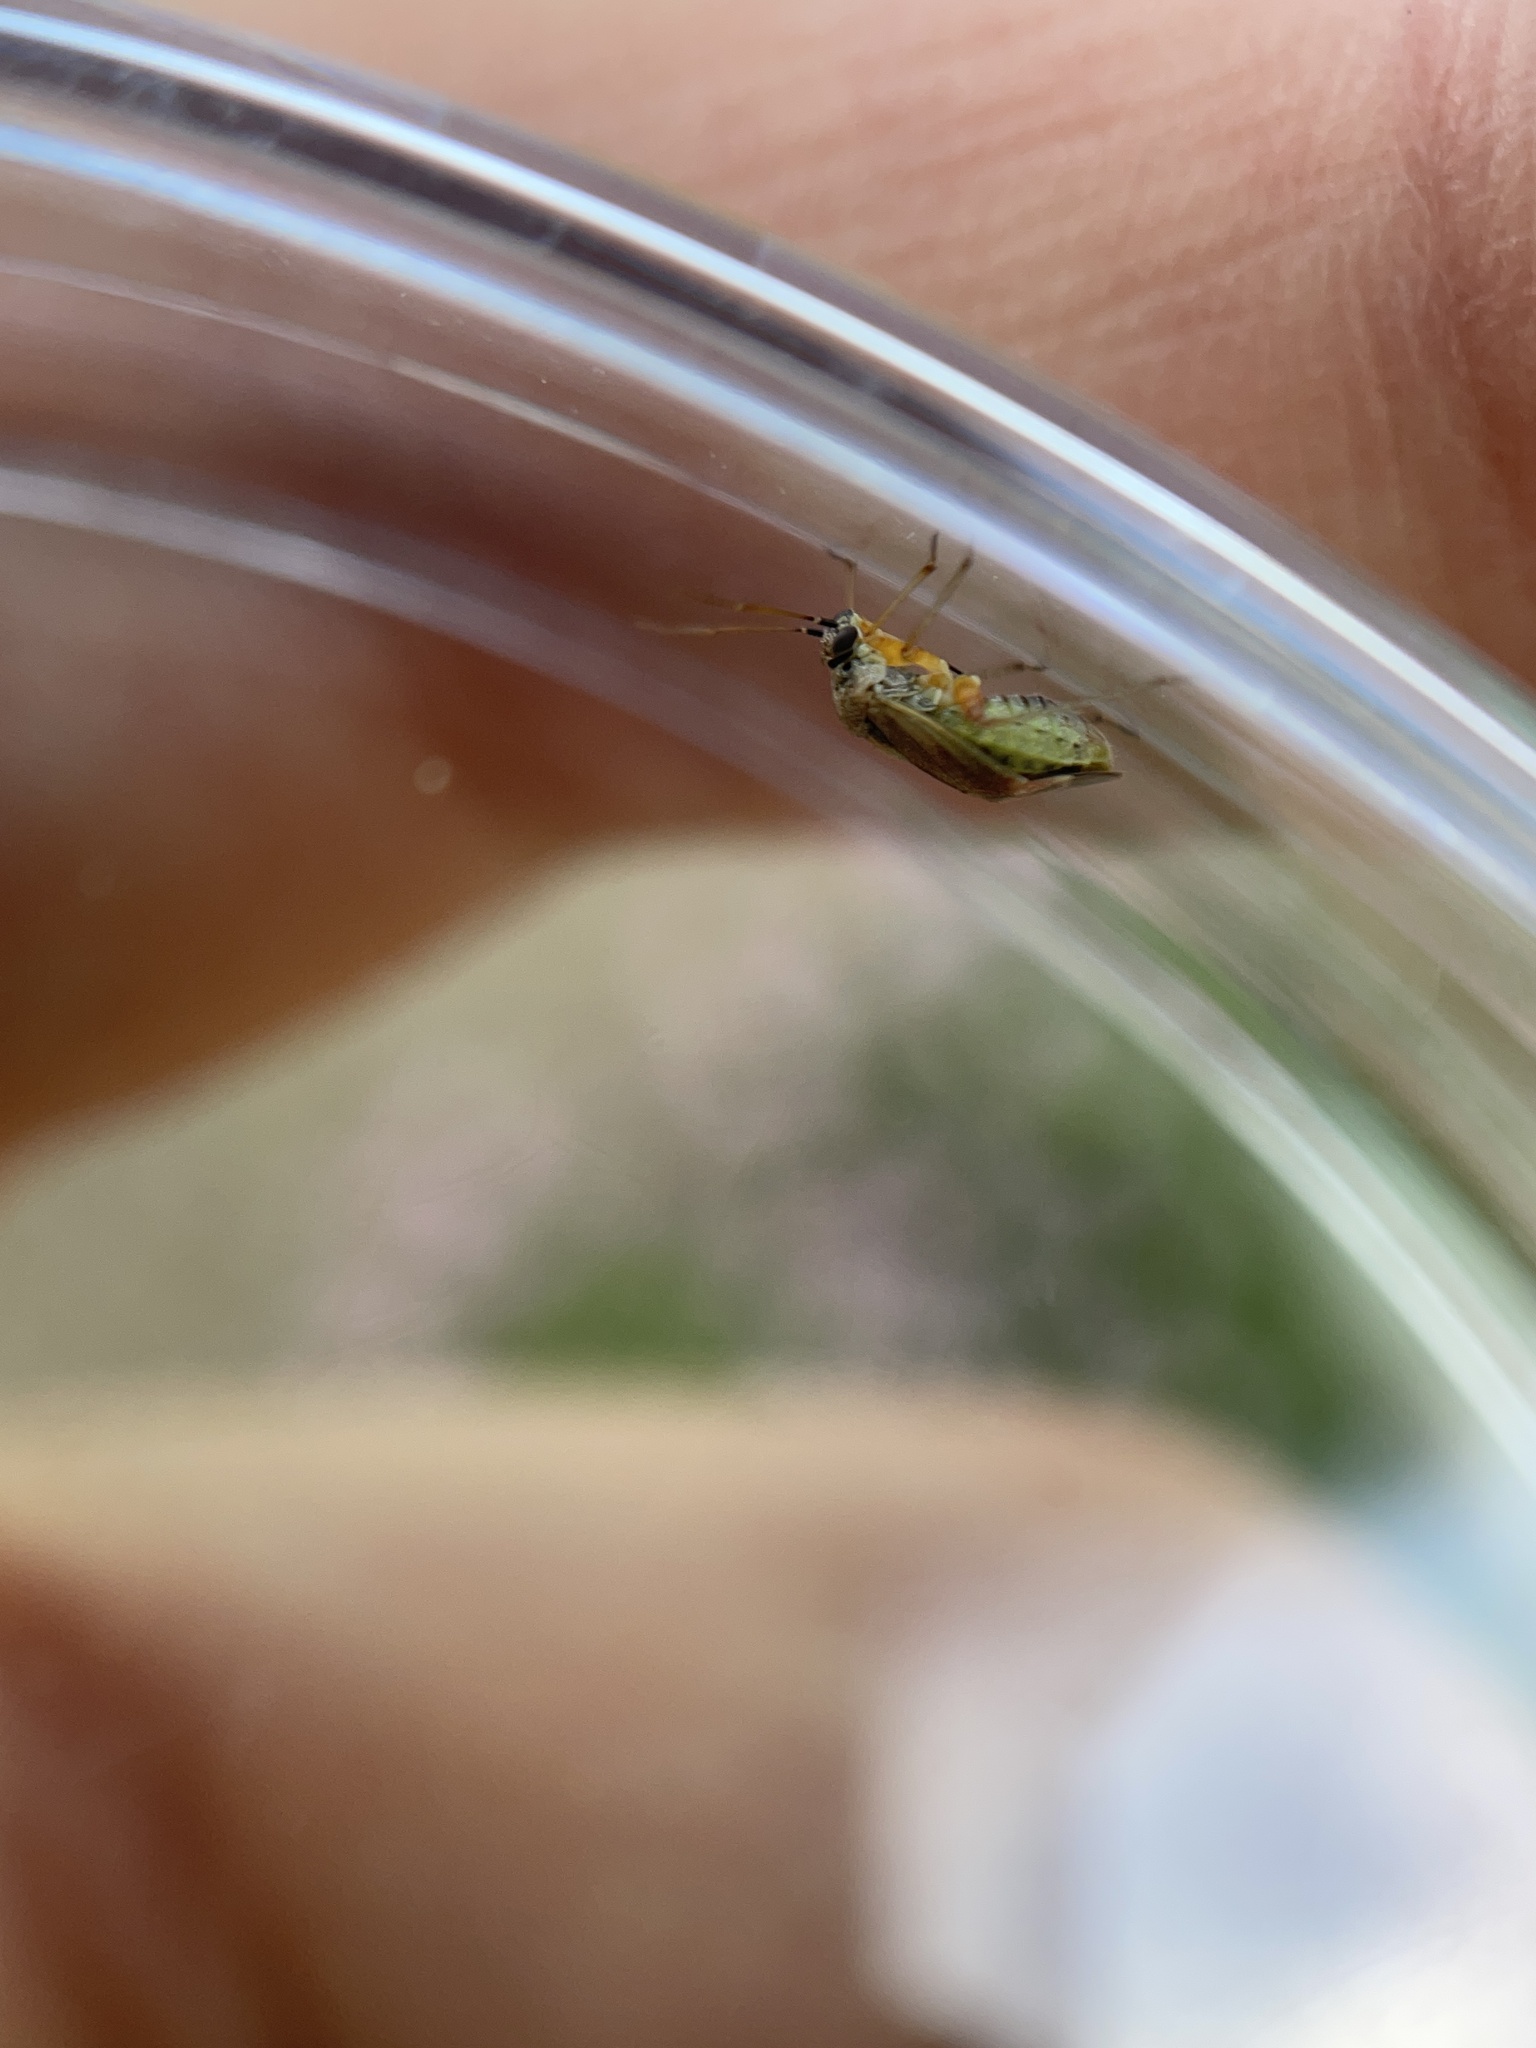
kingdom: Animalia
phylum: Arthropoda
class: Insecta
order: Hemiptera
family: Miridae
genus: Polymerus
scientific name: Polymerus basalis
